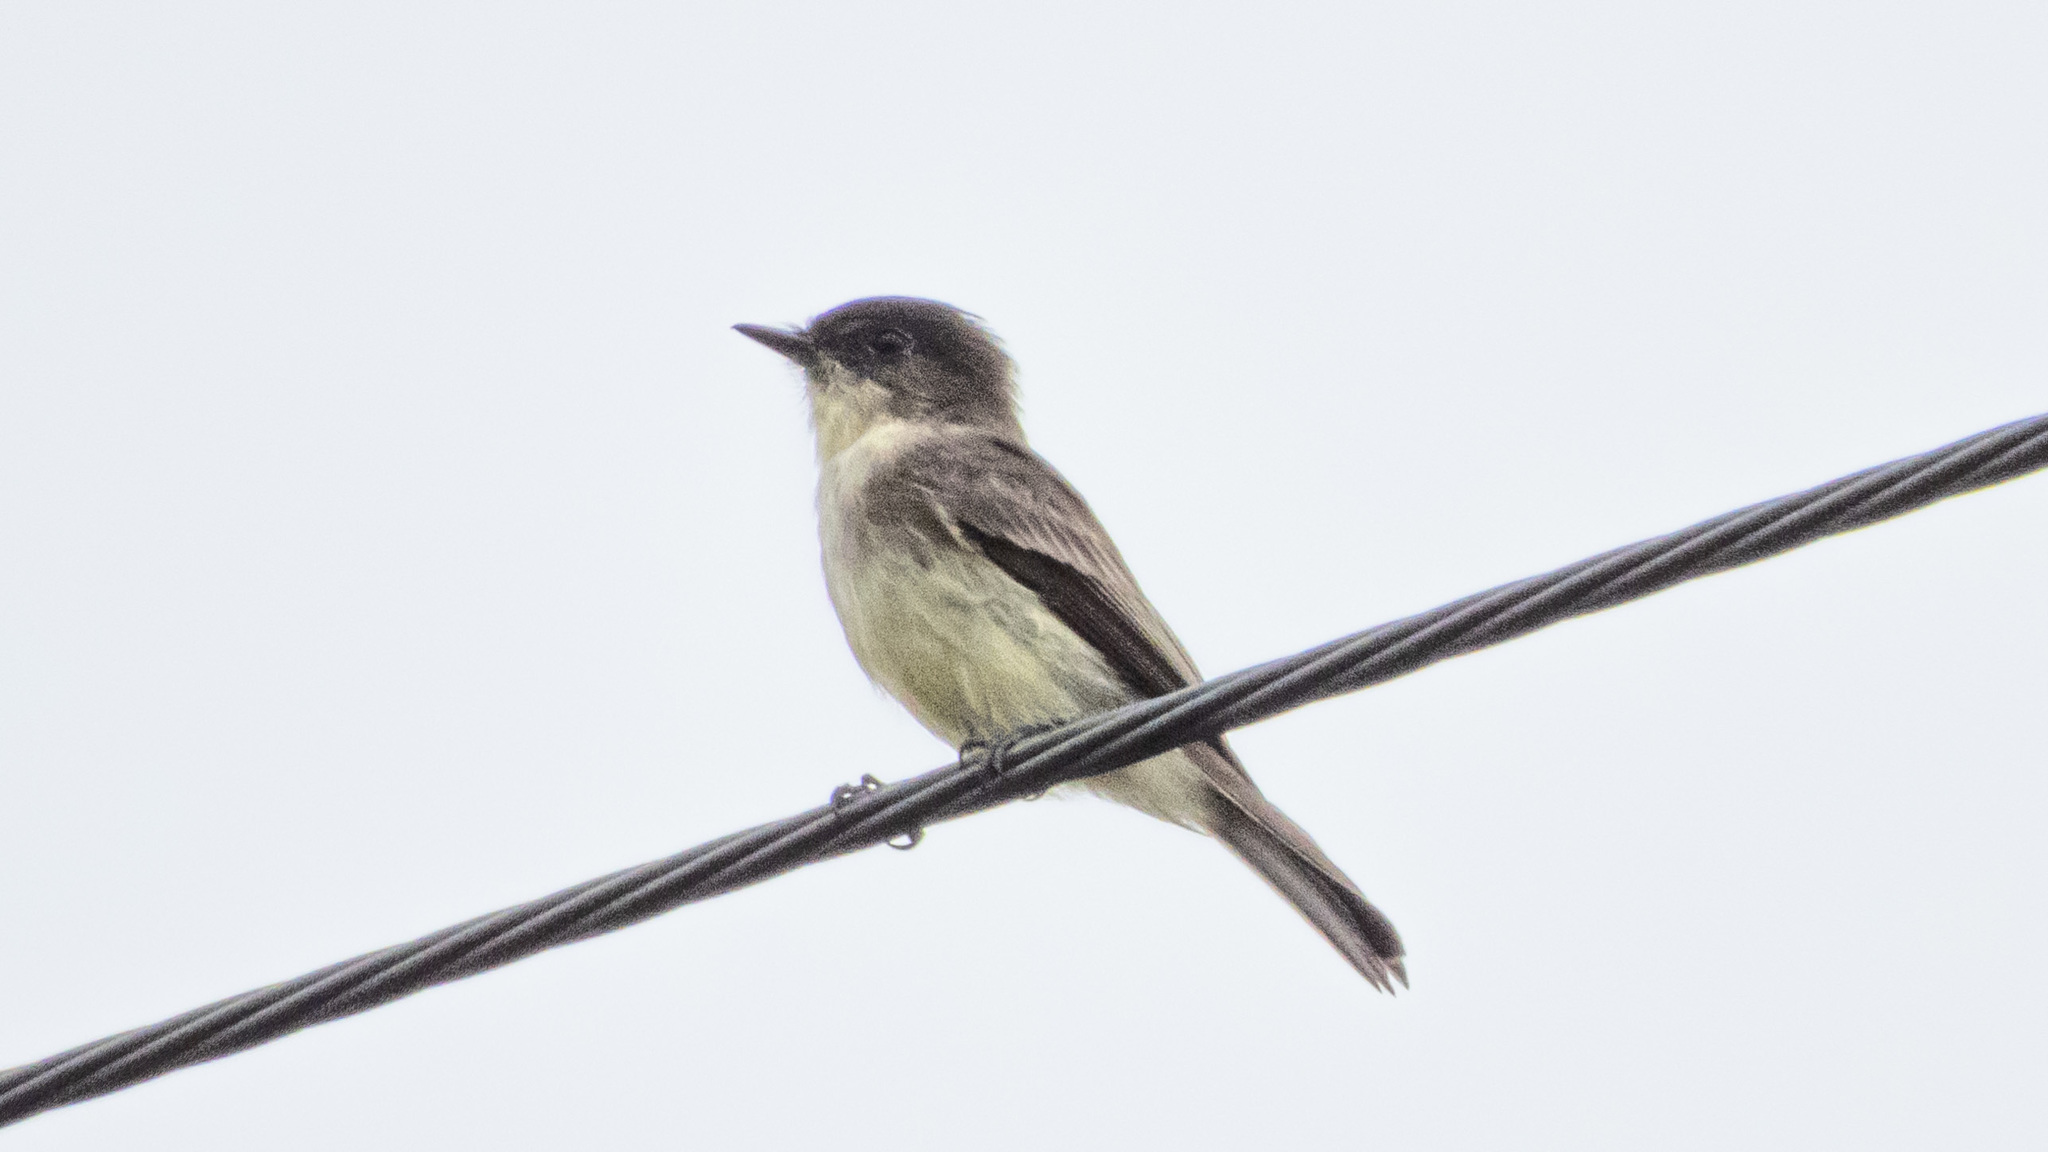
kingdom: Animalia
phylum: Chordata
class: Aves
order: Passeriformes
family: Tyrannidae
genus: Sayornis
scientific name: Sayornis phoebe
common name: Eastern phoebe
